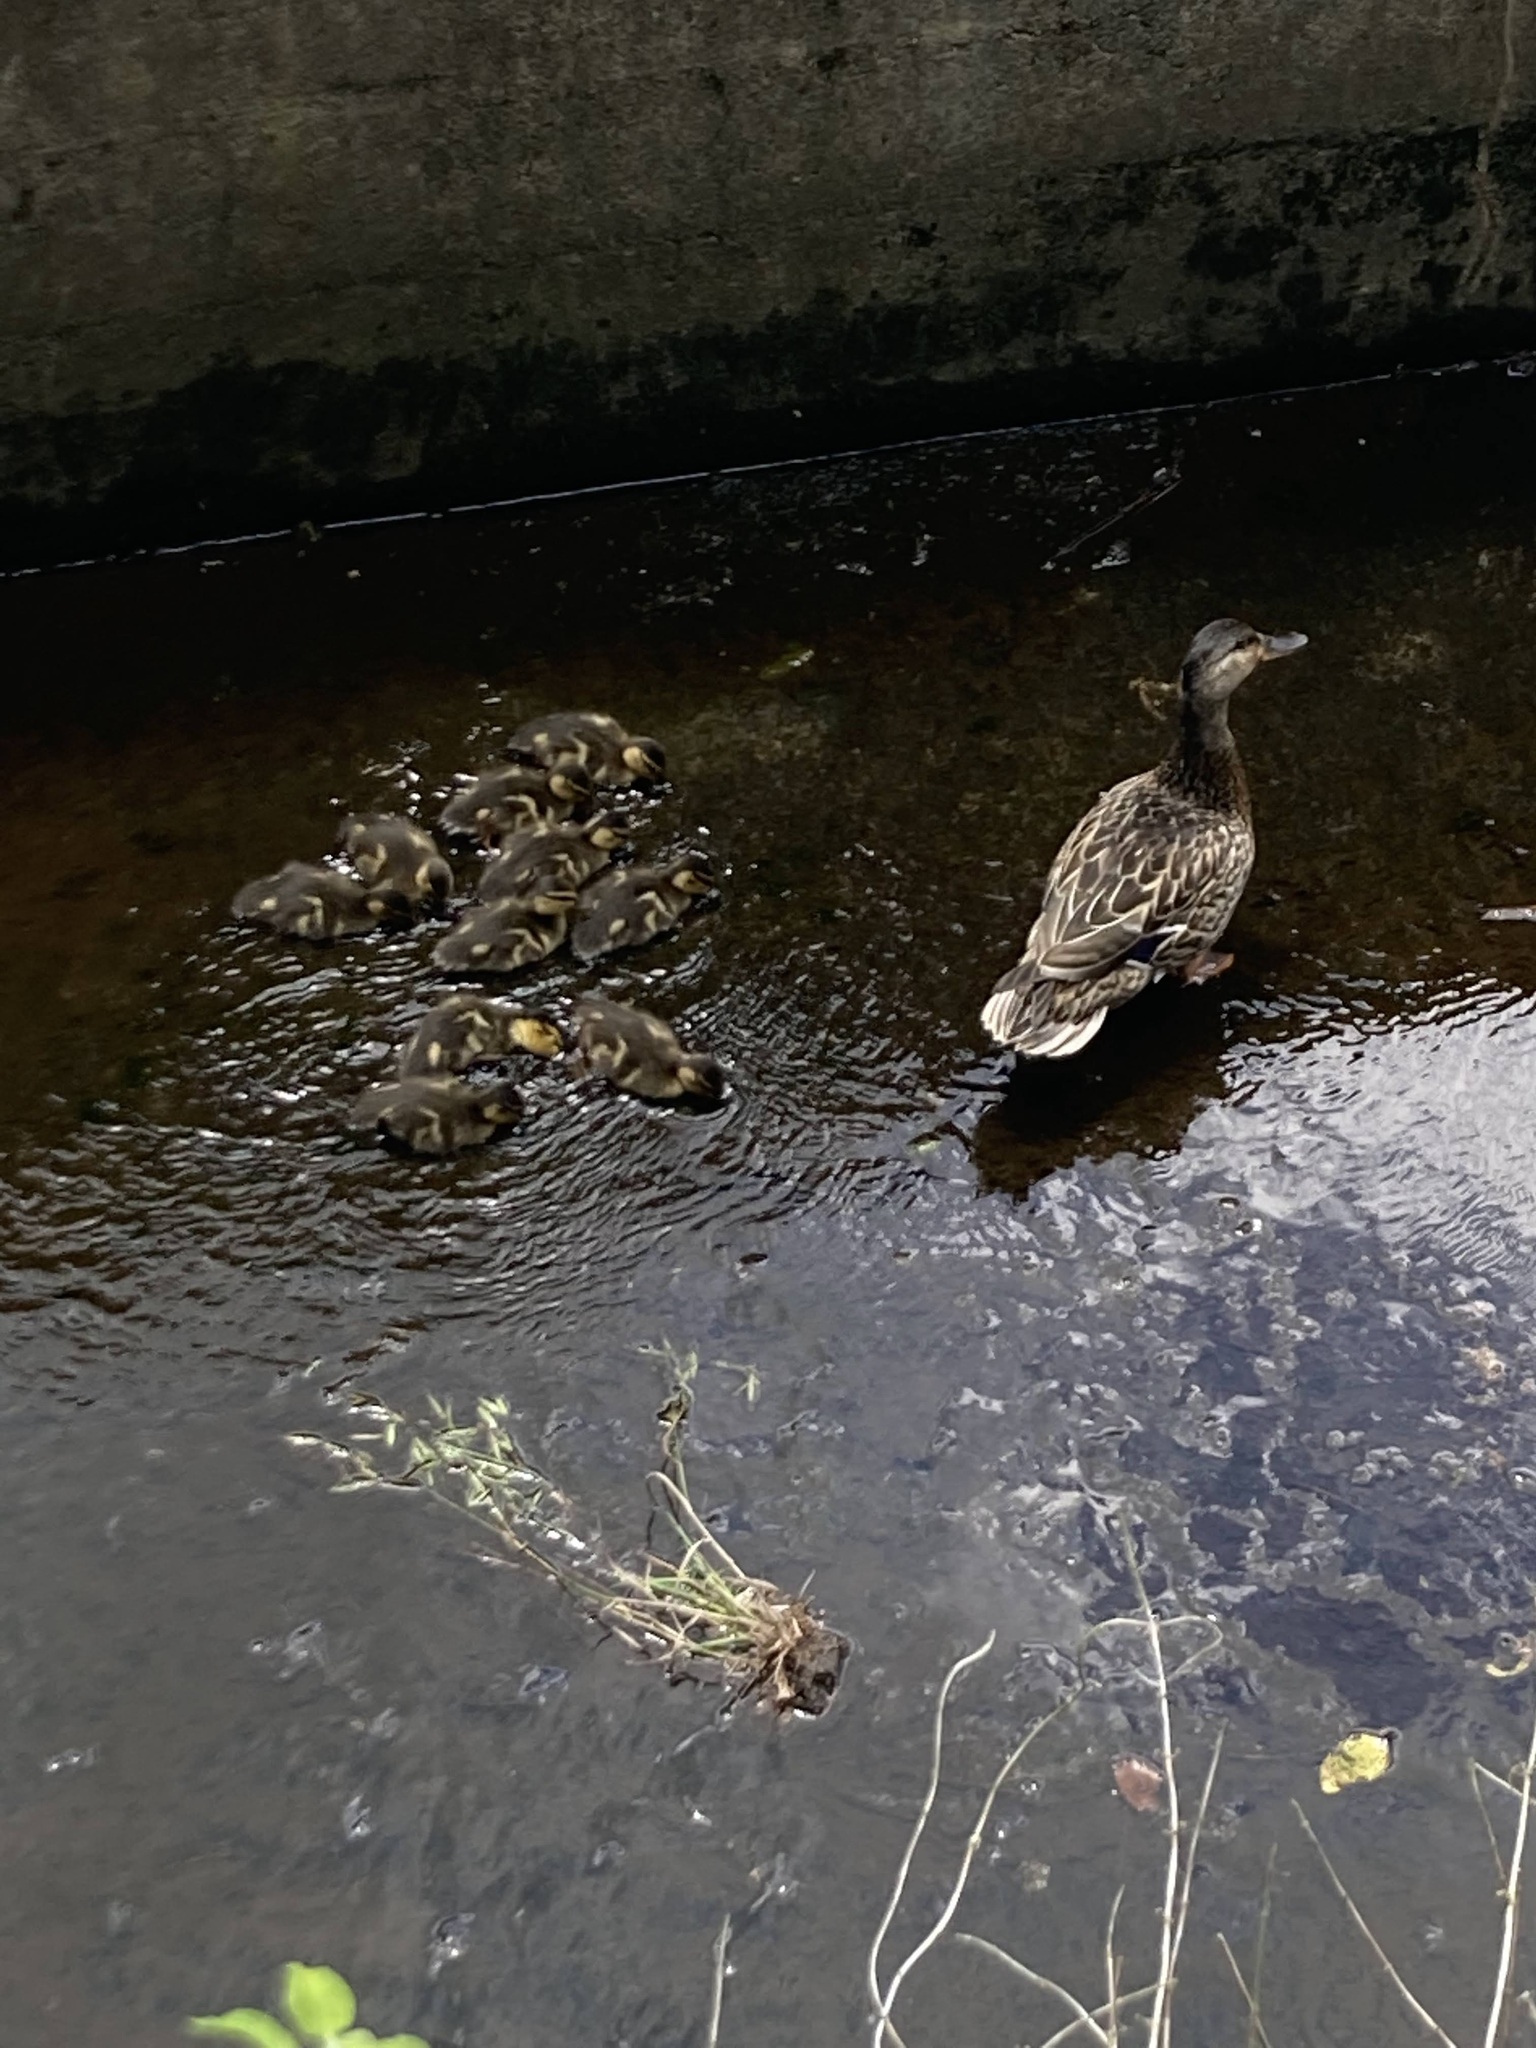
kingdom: Animalia
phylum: Chordata
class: Aves
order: Anseriformes
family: Anatidae
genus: Anas
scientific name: Anas platyrhynchos
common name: Mallard
